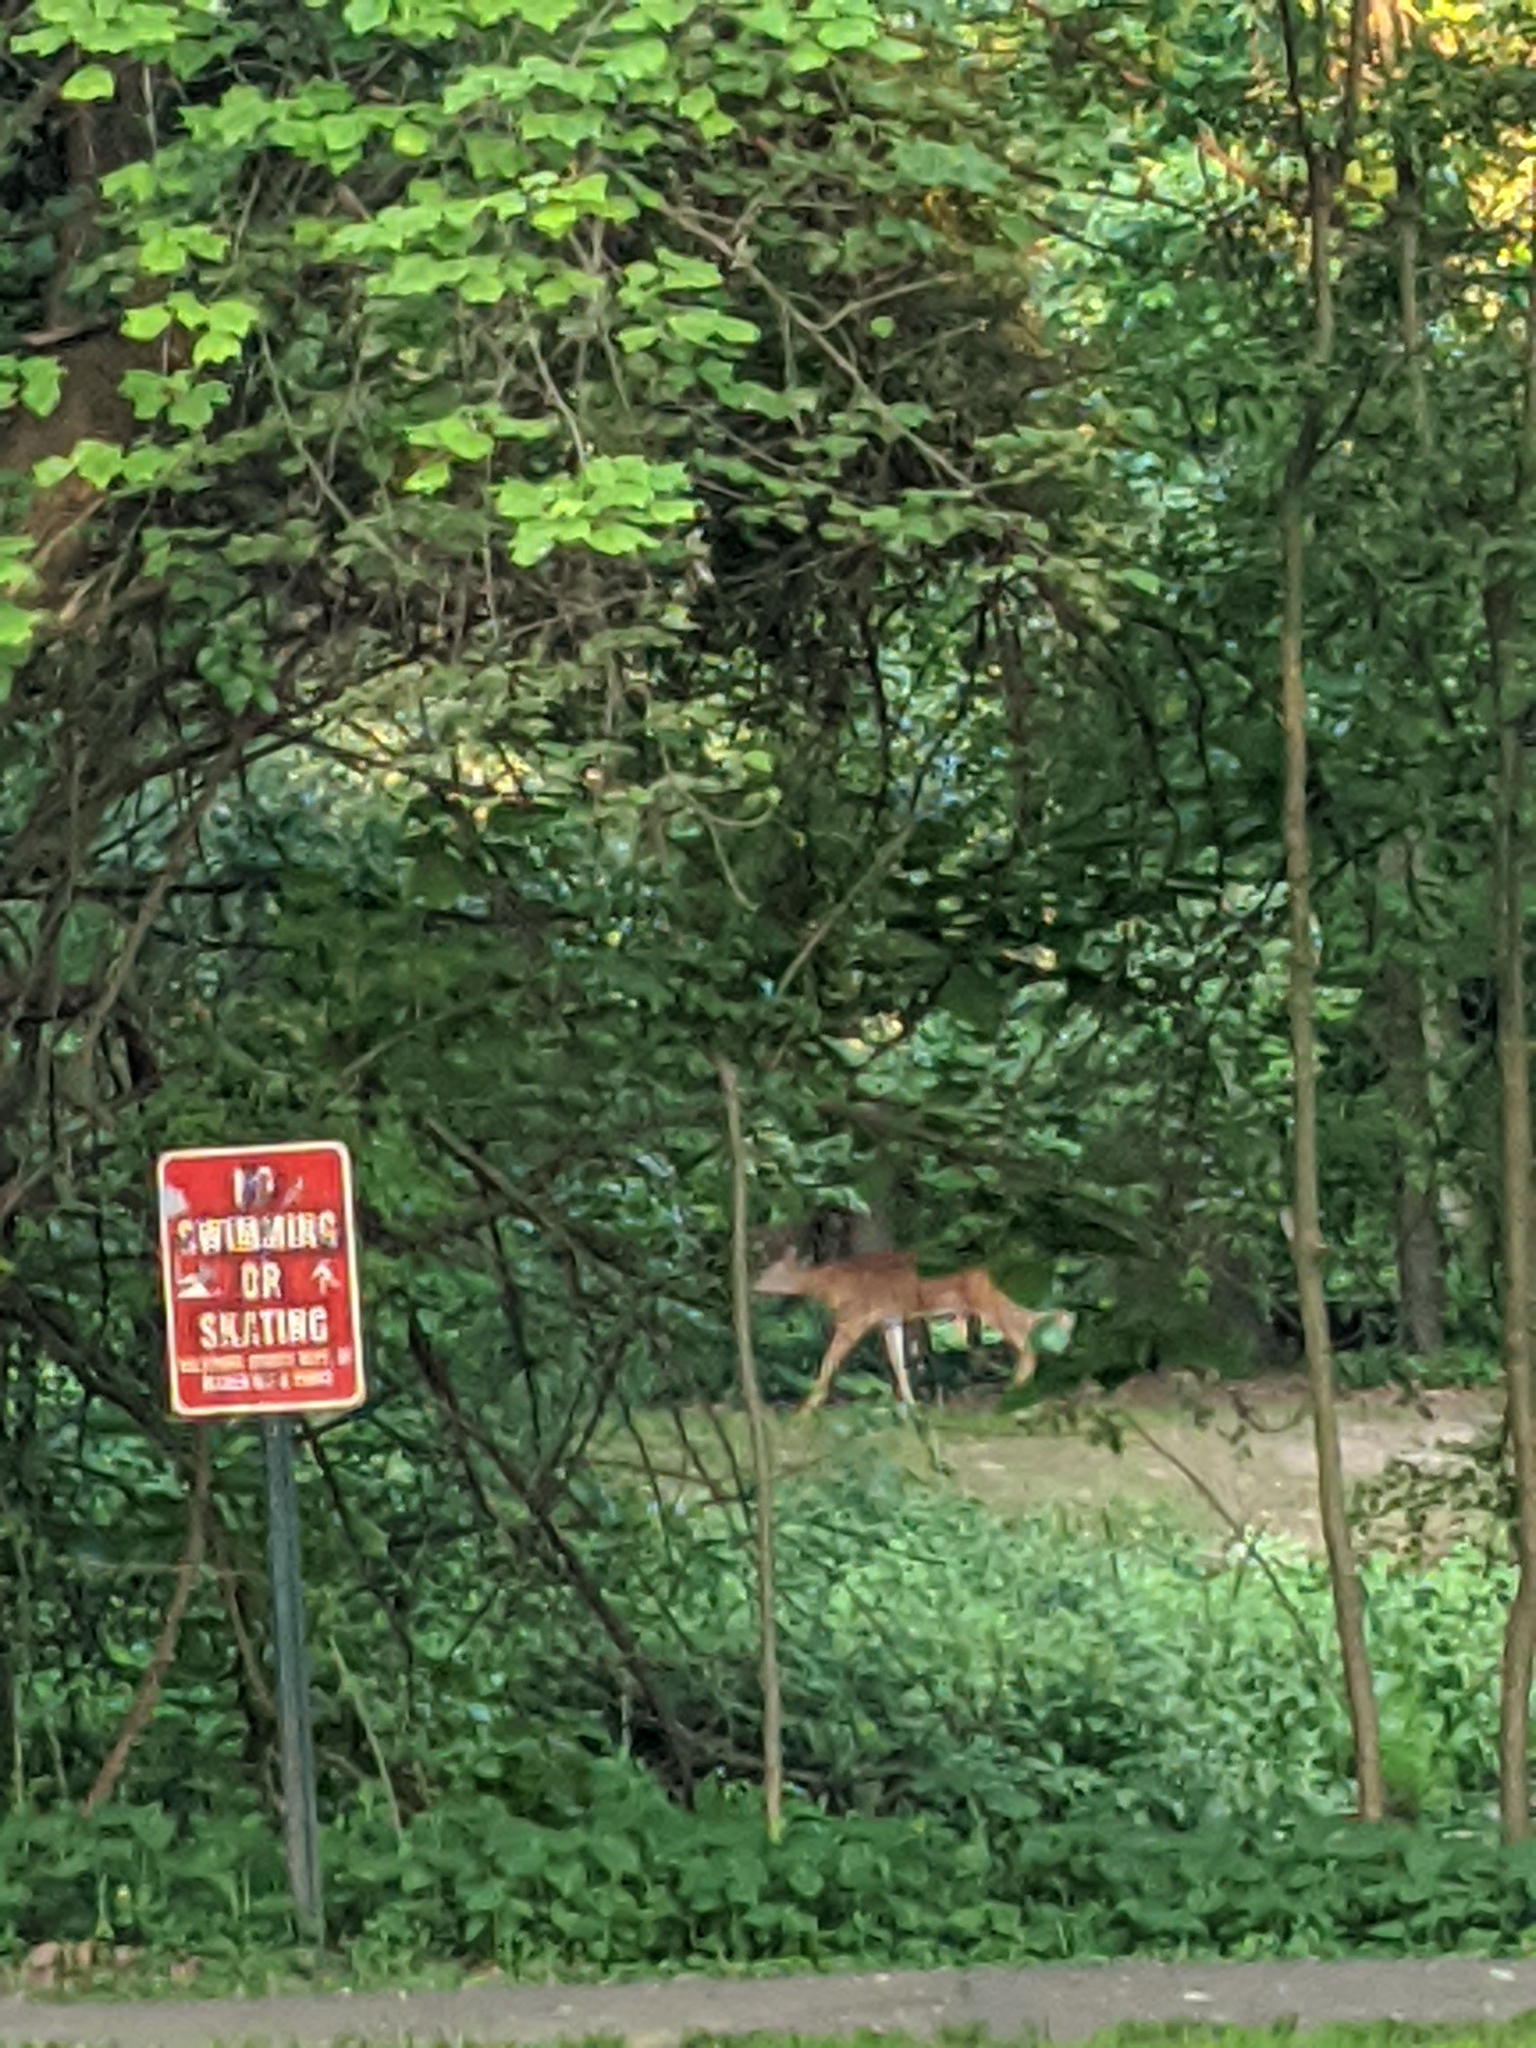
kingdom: Animalia
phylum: Chordata
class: Mammalia
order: Artiodactyla
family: Cervidae
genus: Odocoileus
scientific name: Odocoileus virginianus
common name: White-tailed deer
